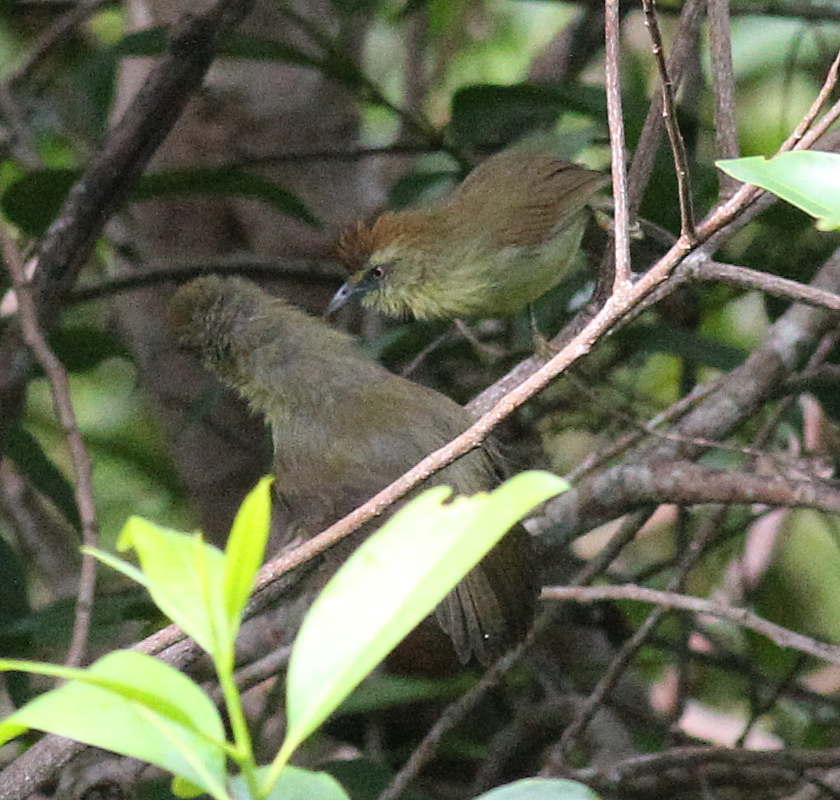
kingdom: Animalia
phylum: Chordata
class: Aves
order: Passeriformes
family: Timaliidae
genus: Macronus
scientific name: Macronus gularis
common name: Striped tit-babbler
